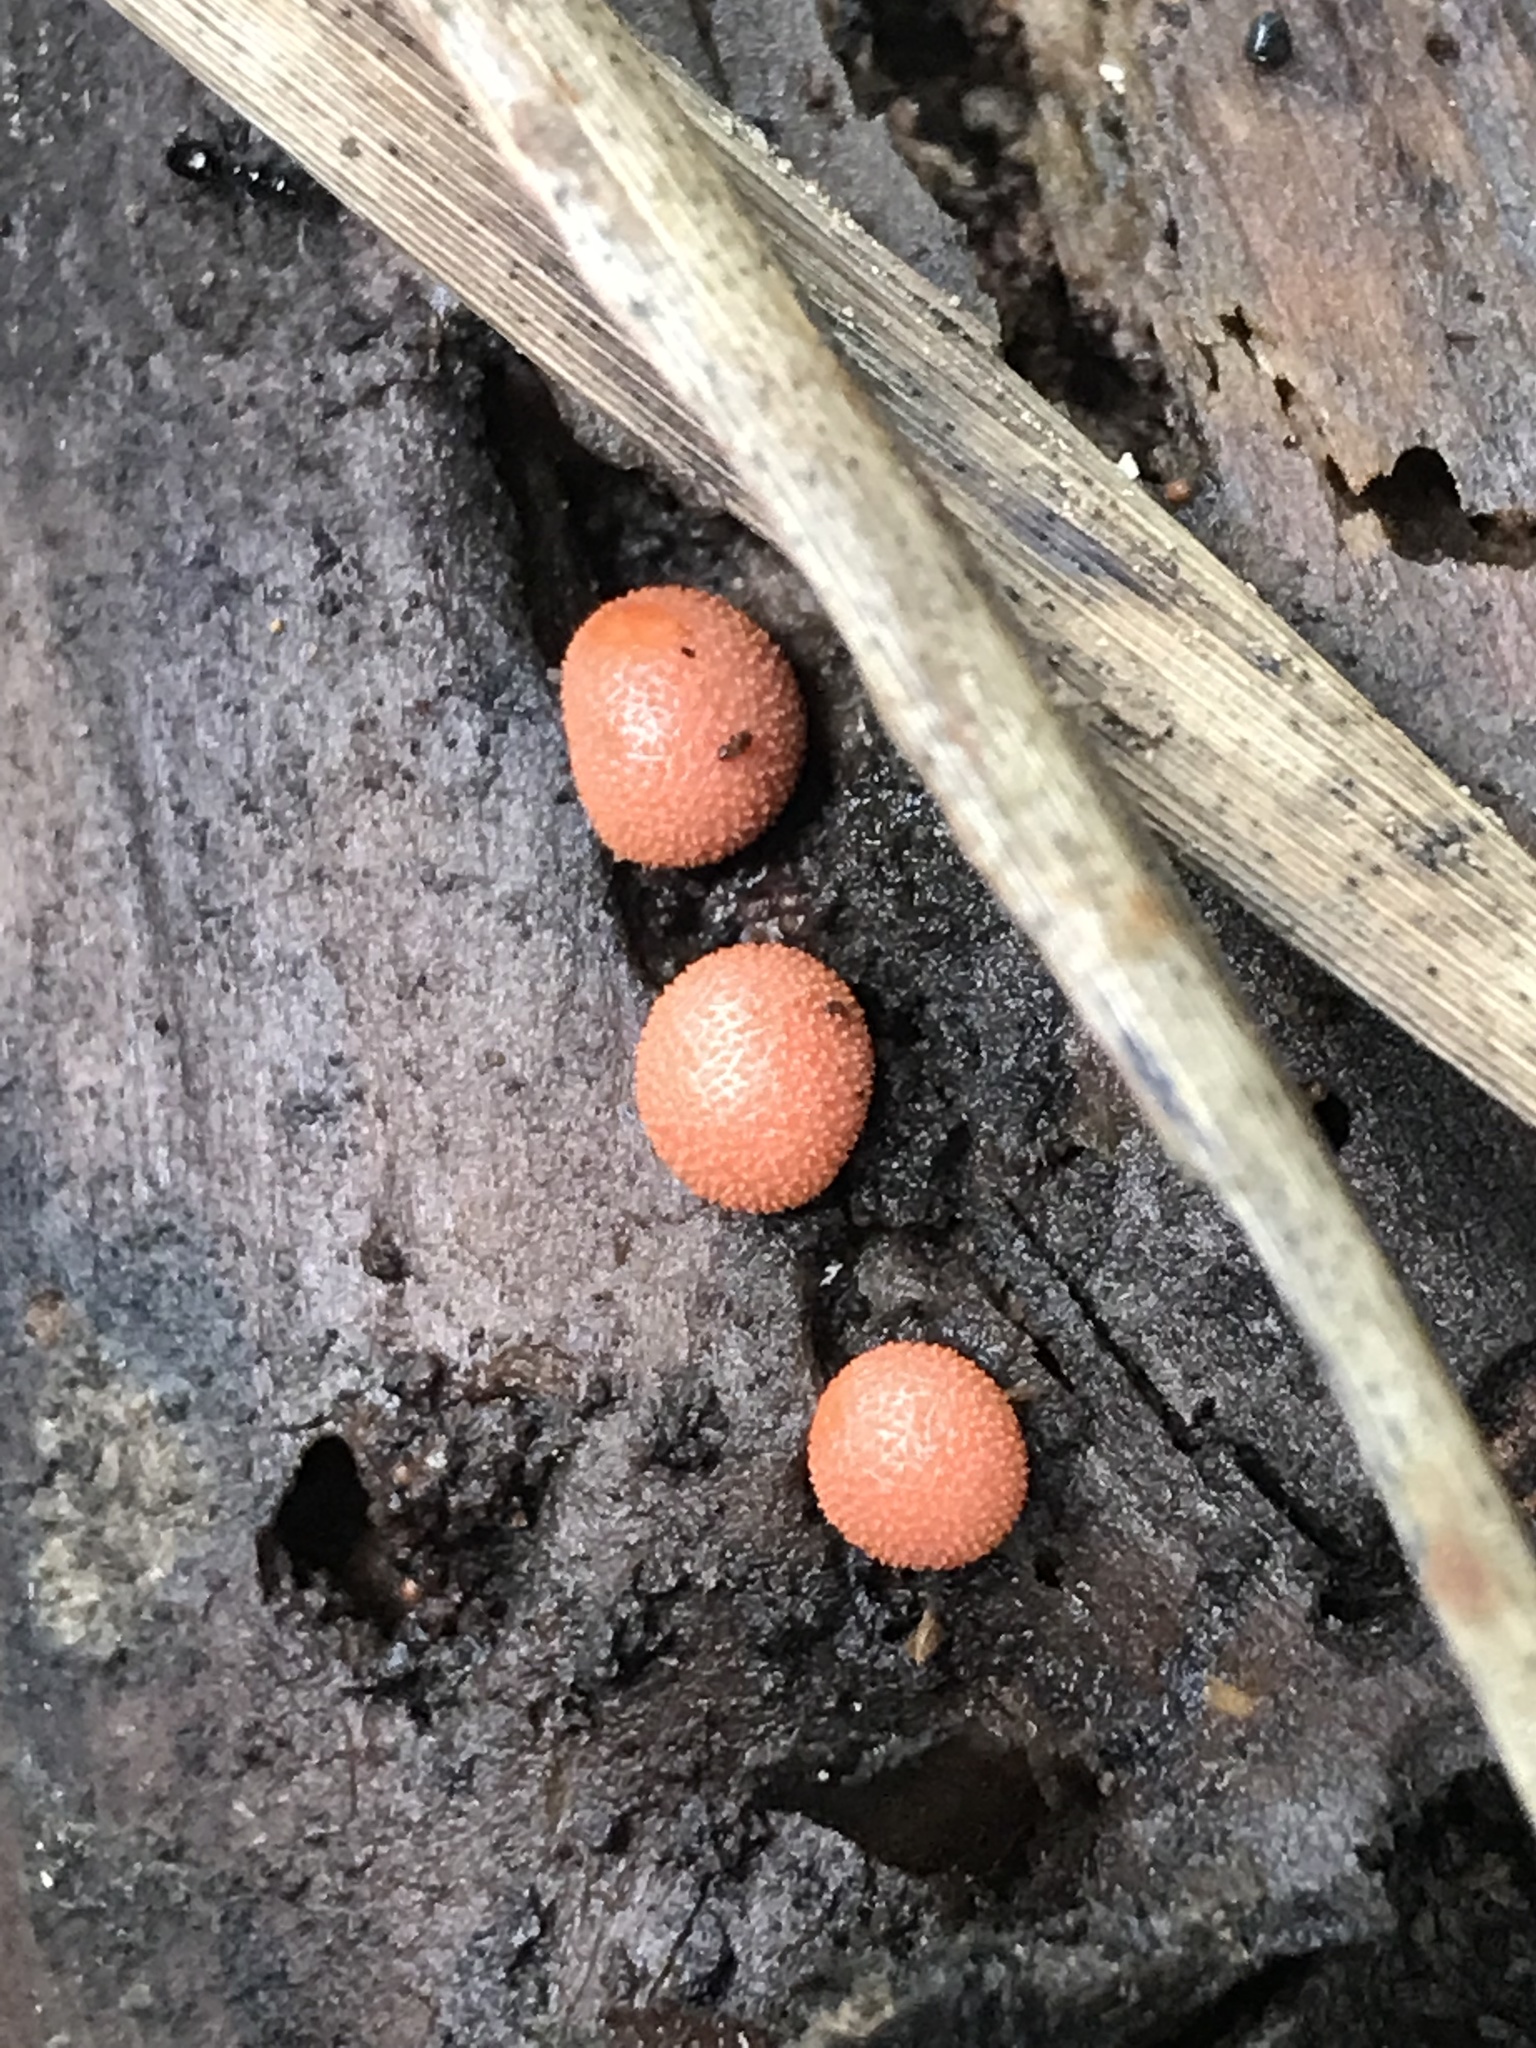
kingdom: Protozoa
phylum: Mycetozoa
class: Myxomycetes
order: Cribrariales
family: Tubiferaceae
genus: Lycogala
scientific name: Lycogala epidendrum
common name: Wolf's milk
